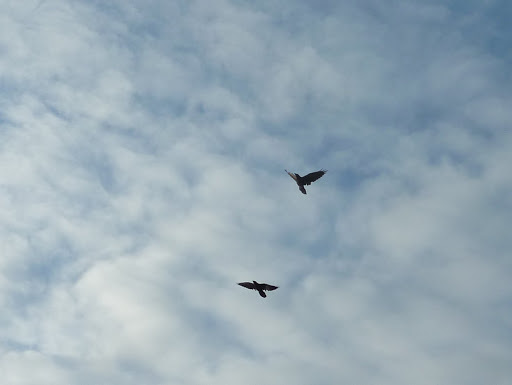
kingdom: Animalia
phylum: Chordata
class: Aves
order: Passeriformes
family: Corvidae
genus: Corvus
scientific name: Corvus corax
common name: Common raven
